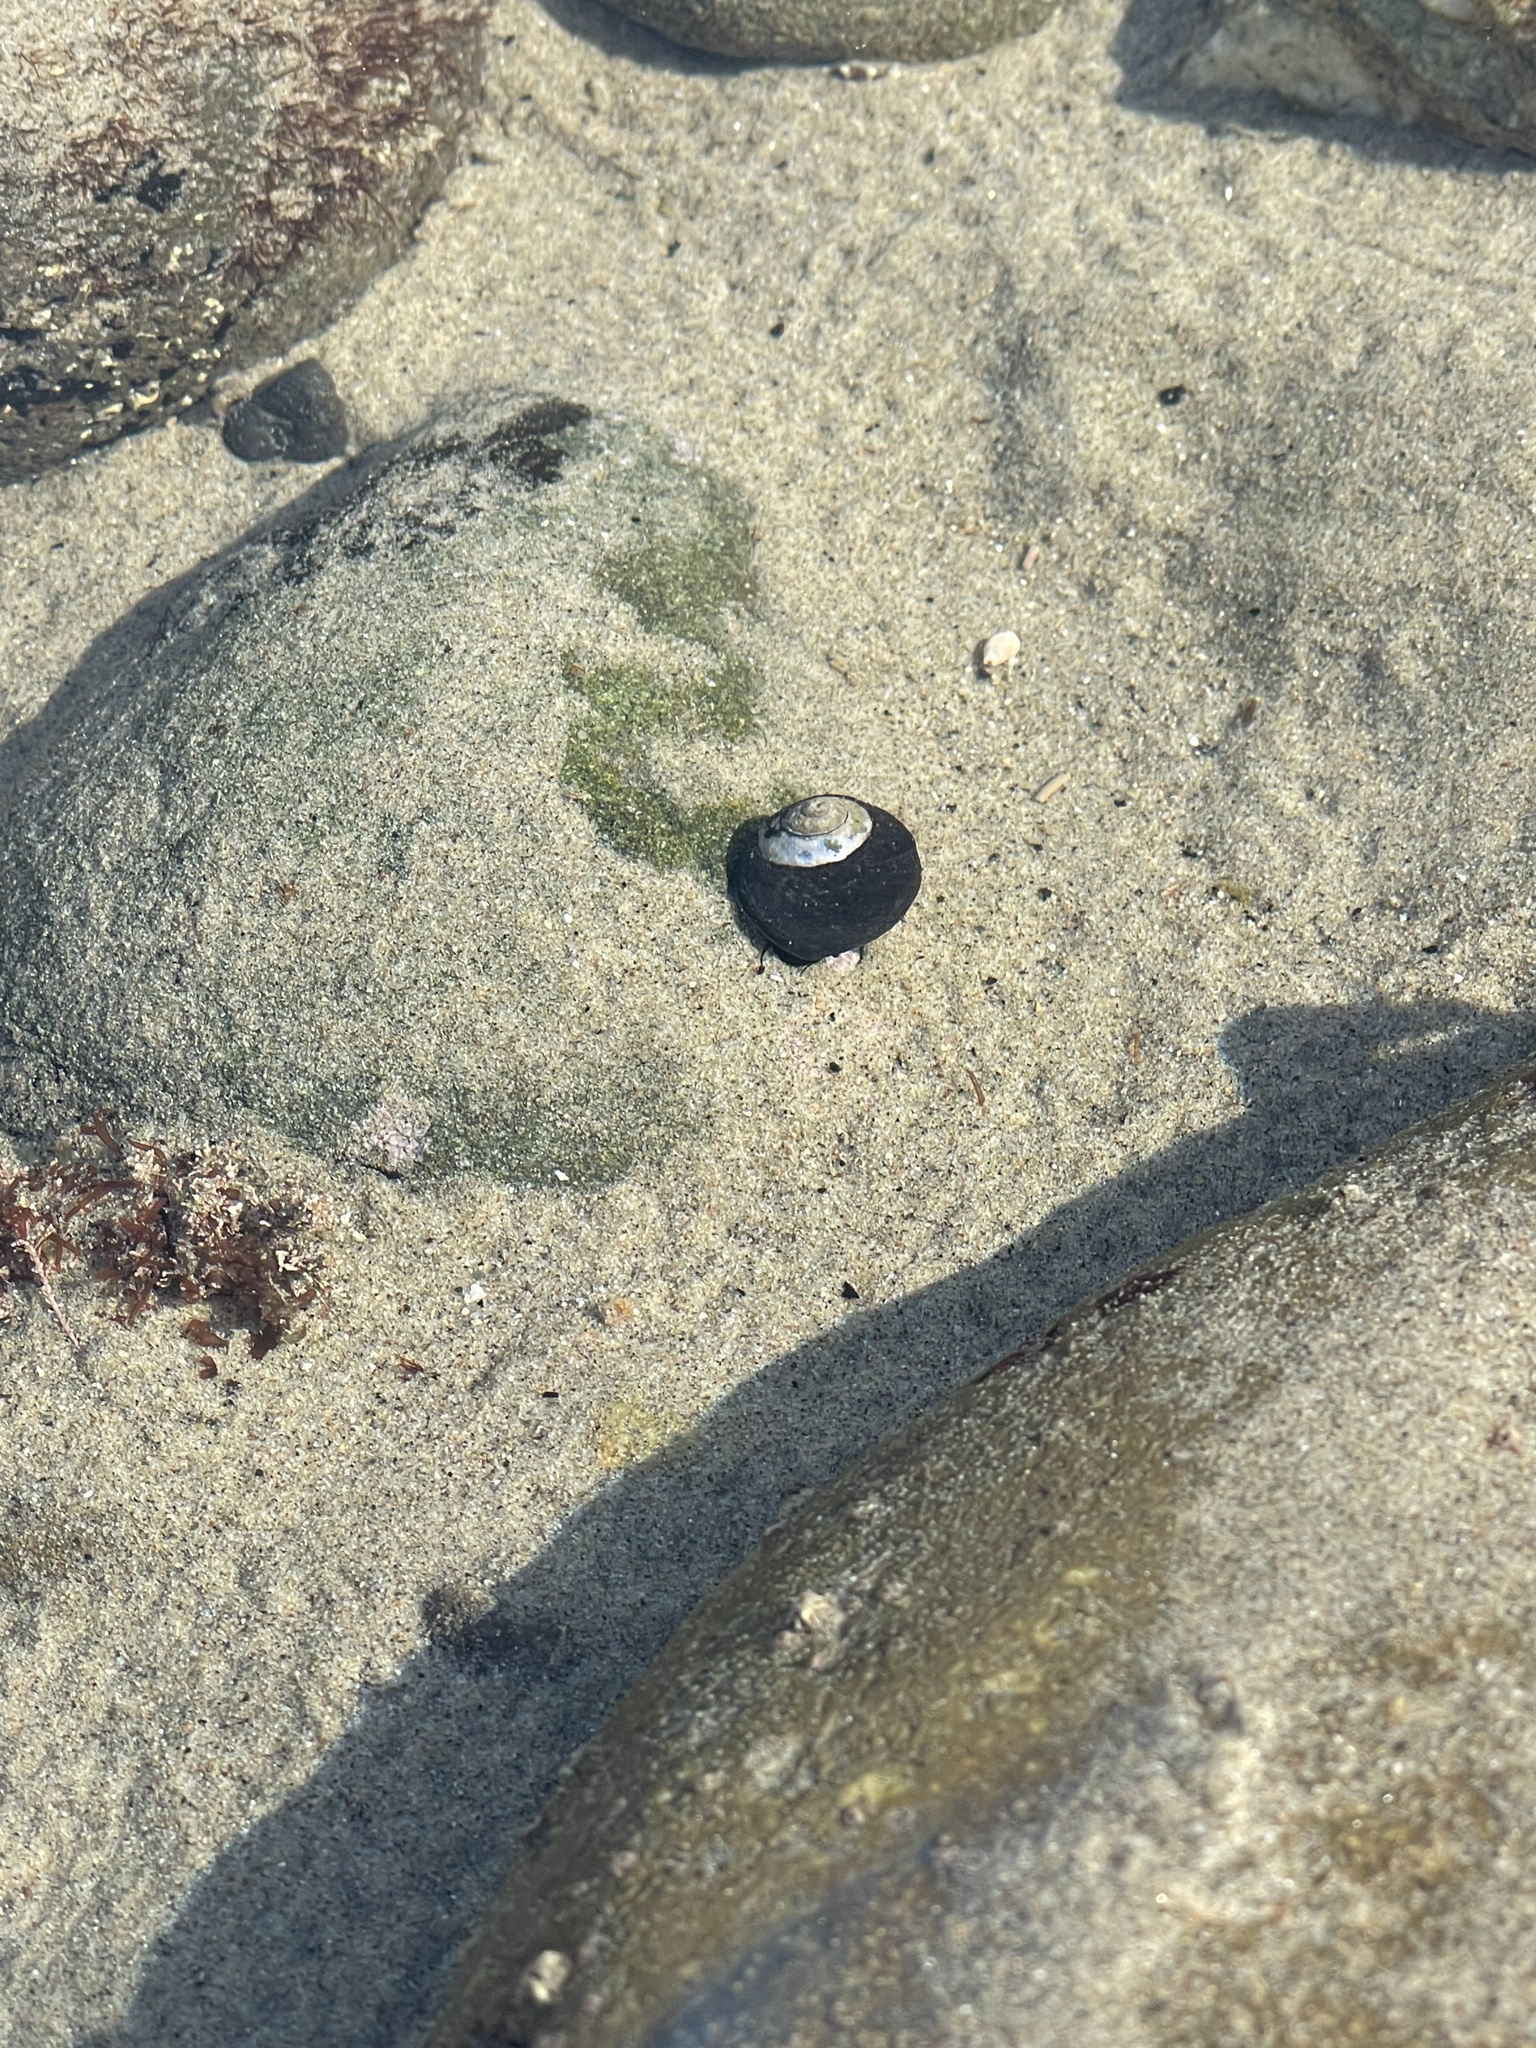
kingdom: Animalia
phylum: Mollusca
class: Gastropoda
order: Trochida
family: Tegulidae
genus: Tegula
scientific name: Tegula funebralis
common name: Black tegula
